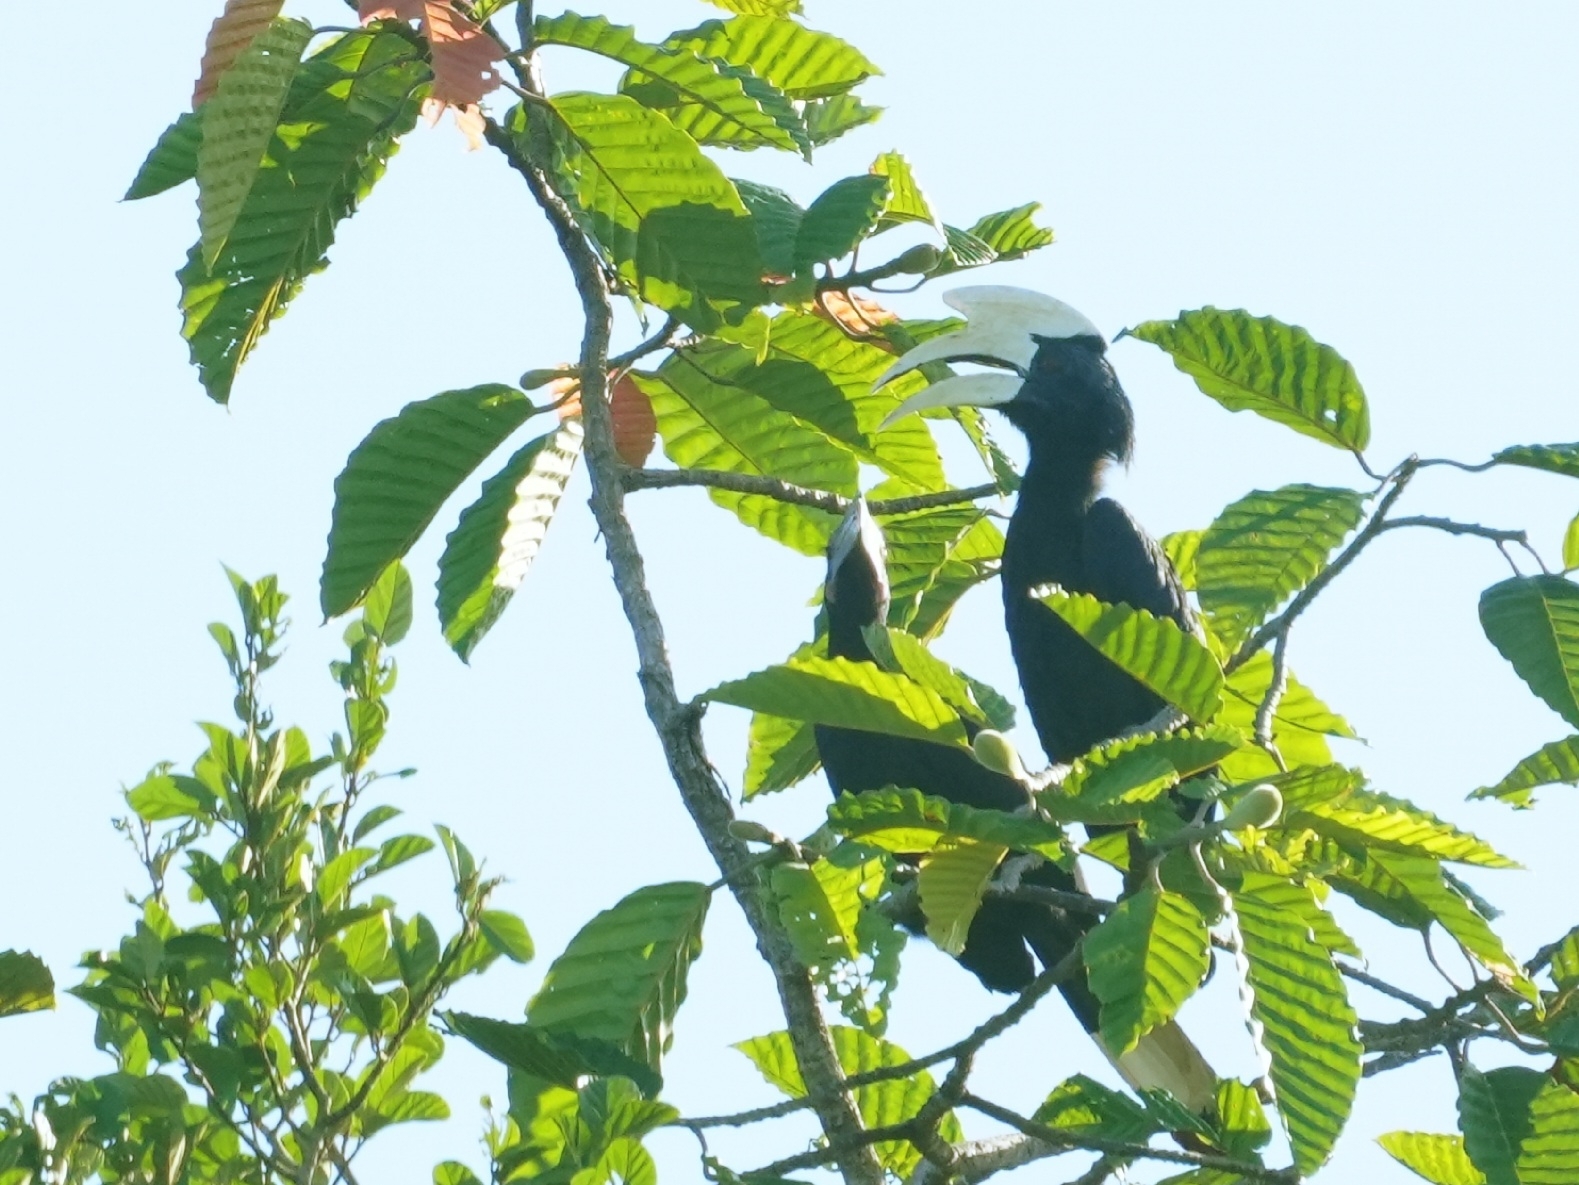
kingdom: Animalia
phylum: Chordata
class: Aves
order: Bucerotiformes
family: Bucerotidae
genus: Anthracoceros
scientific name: Anthracoceros malayanus
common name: Black hornbill
